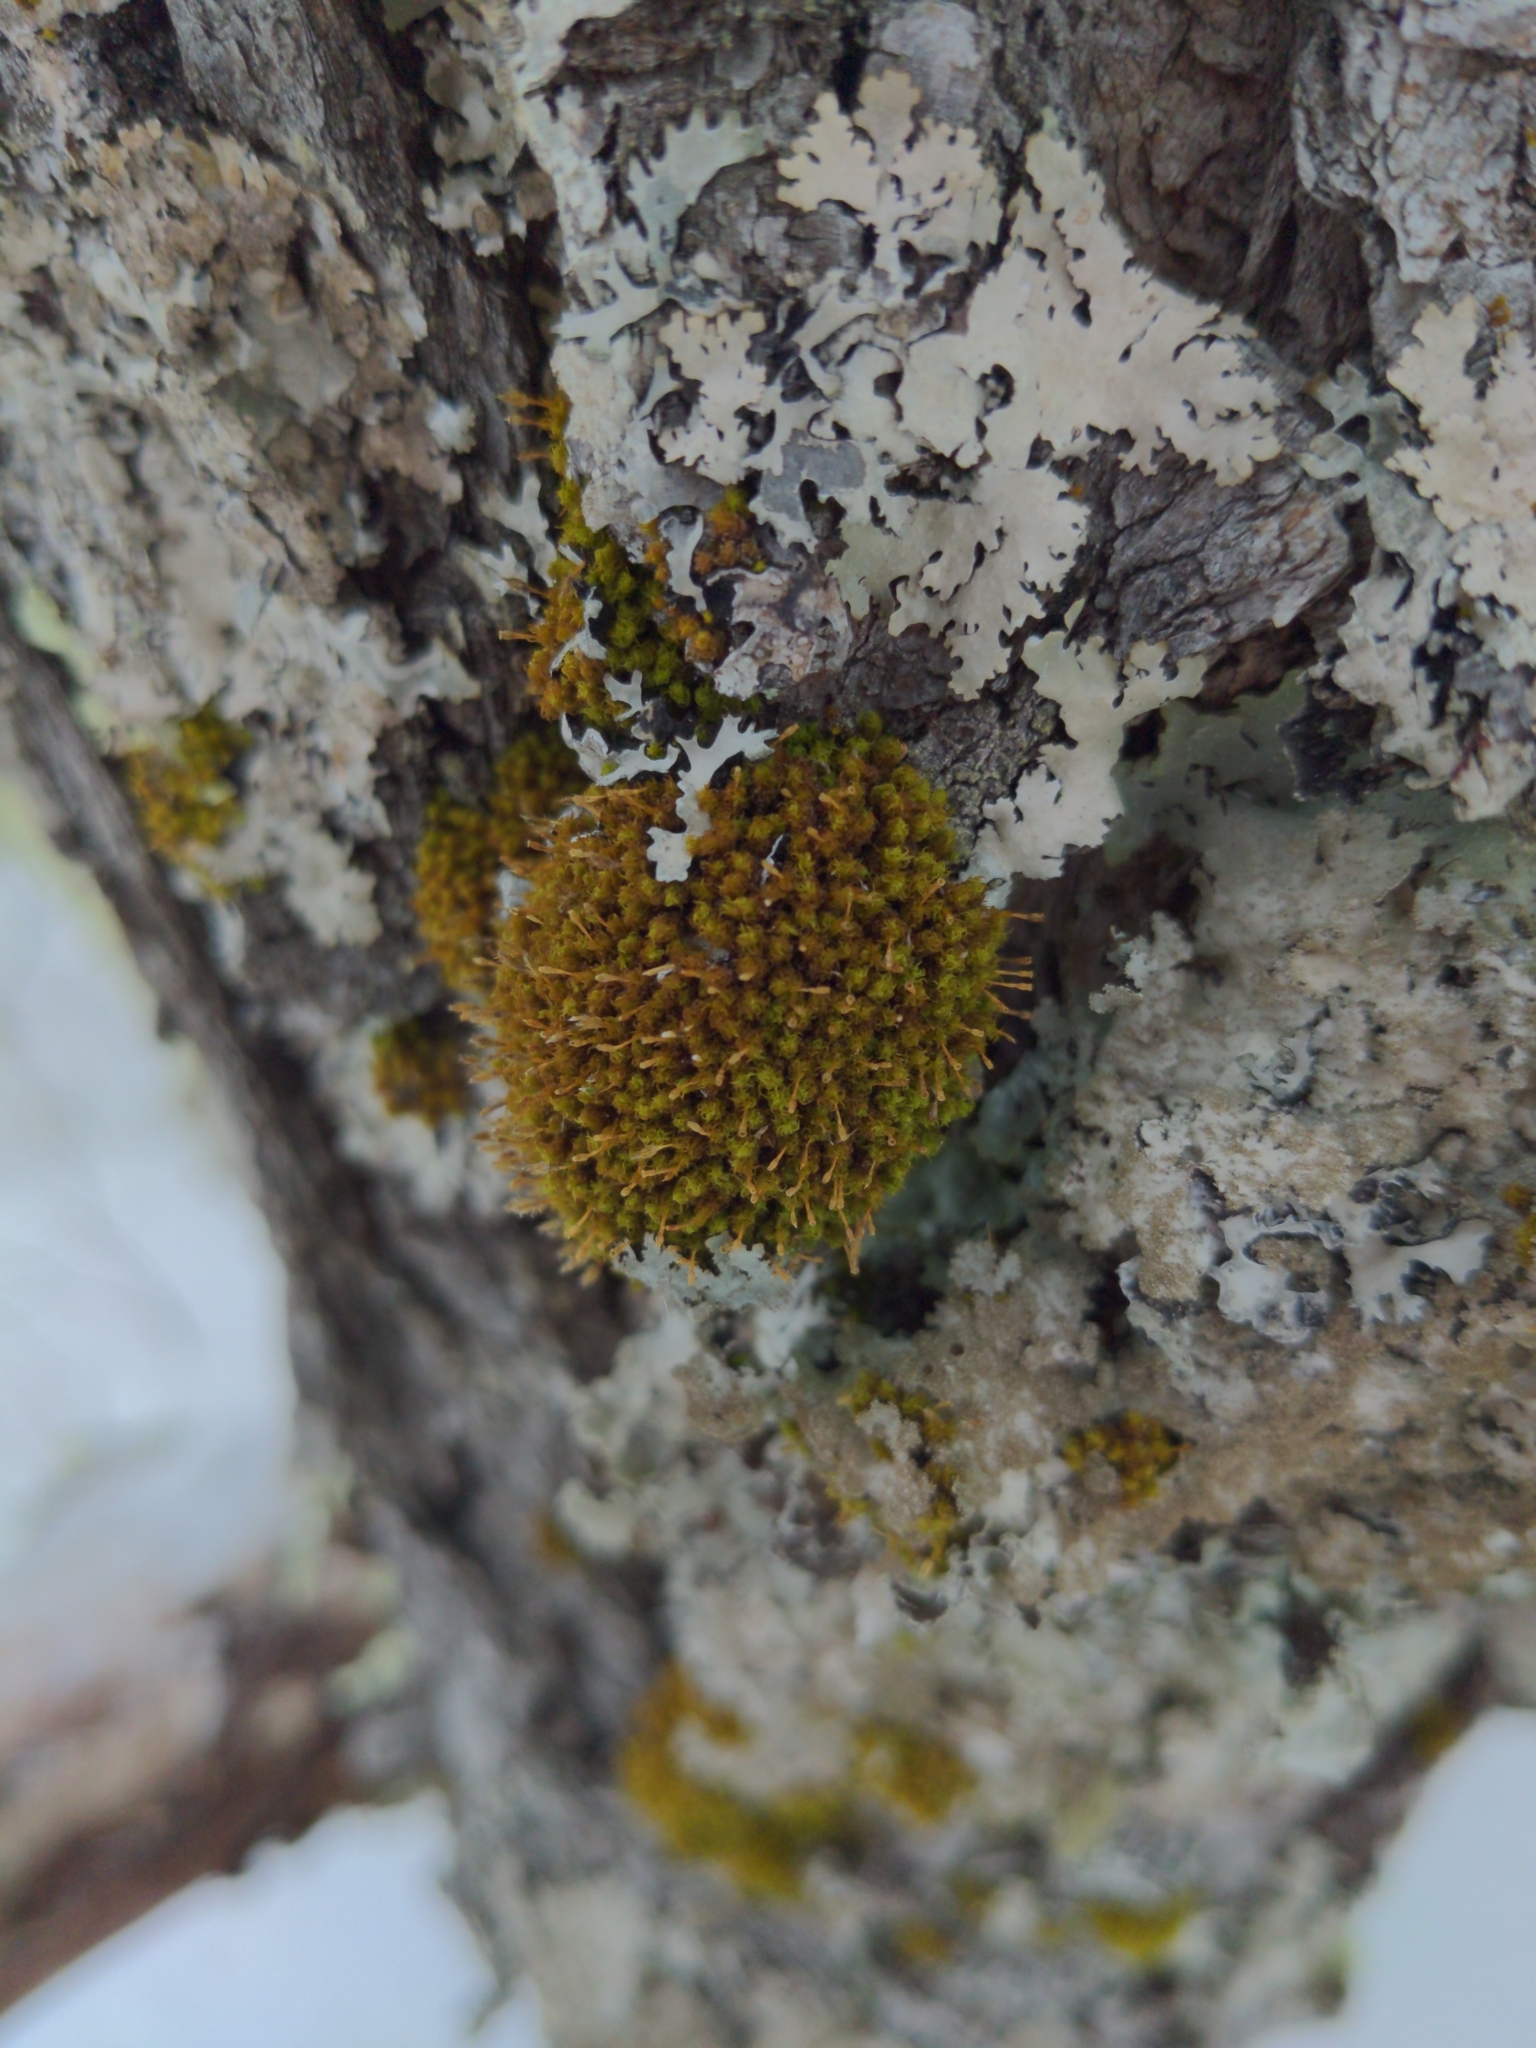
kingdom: Plantae
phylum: Bryophyta
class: Bryopsida
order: Orthotrichales
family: Orthotrichaceae
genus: Ulota
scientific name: Ulota crispa
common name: Crisped pincushion moss
